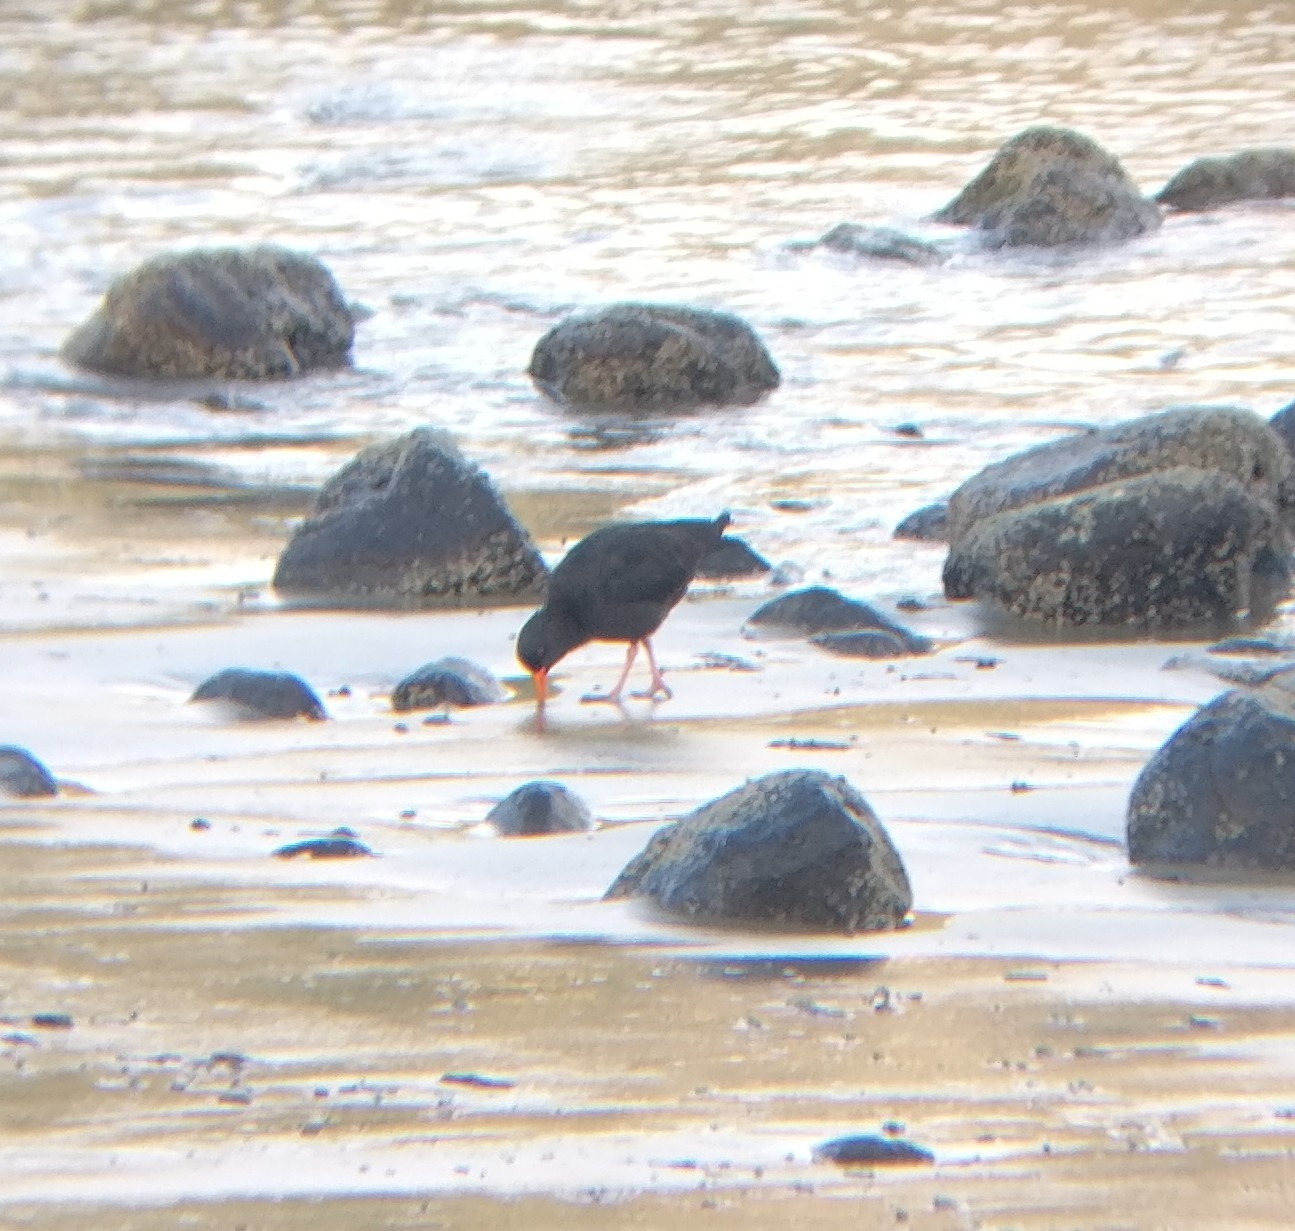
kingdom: Animalia
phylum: Chordata
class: Aves
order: Charadriiformes
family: Haematopodidae
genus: Haematopus
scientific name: Haematopus unicolor
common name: Variable oystercatcher
